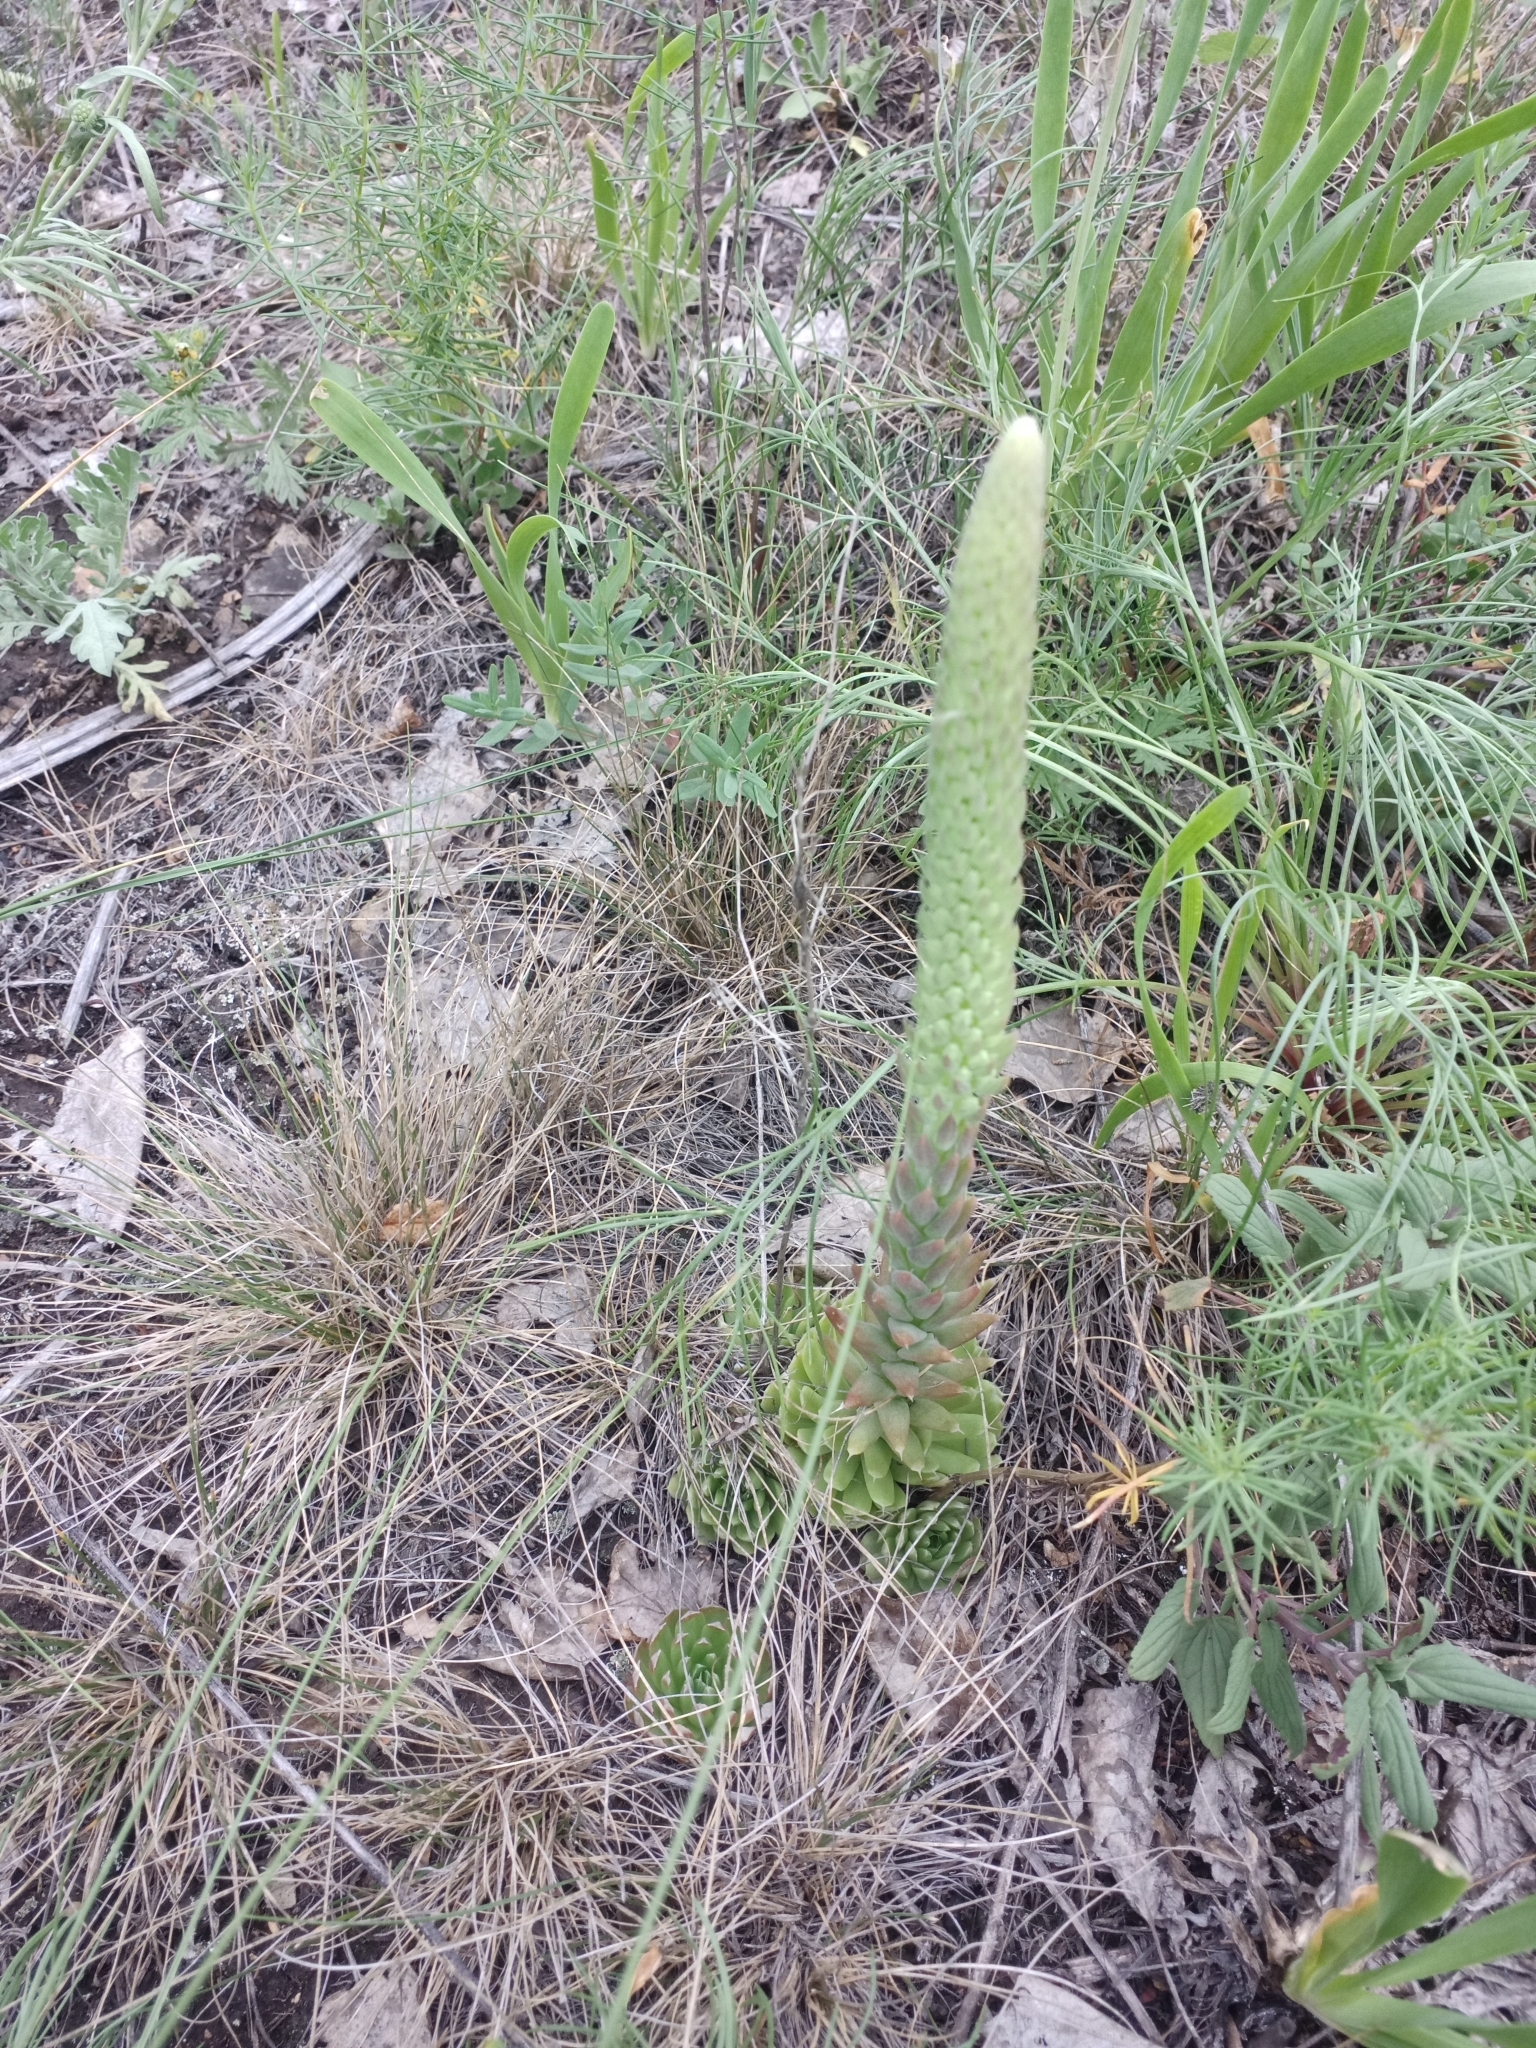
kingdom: Plantae
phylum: Tracheophyta
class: Magnoliopsida
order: Saxifragales
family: Crassulaceae
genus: Orostachys
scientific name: Orostachys spinosa
